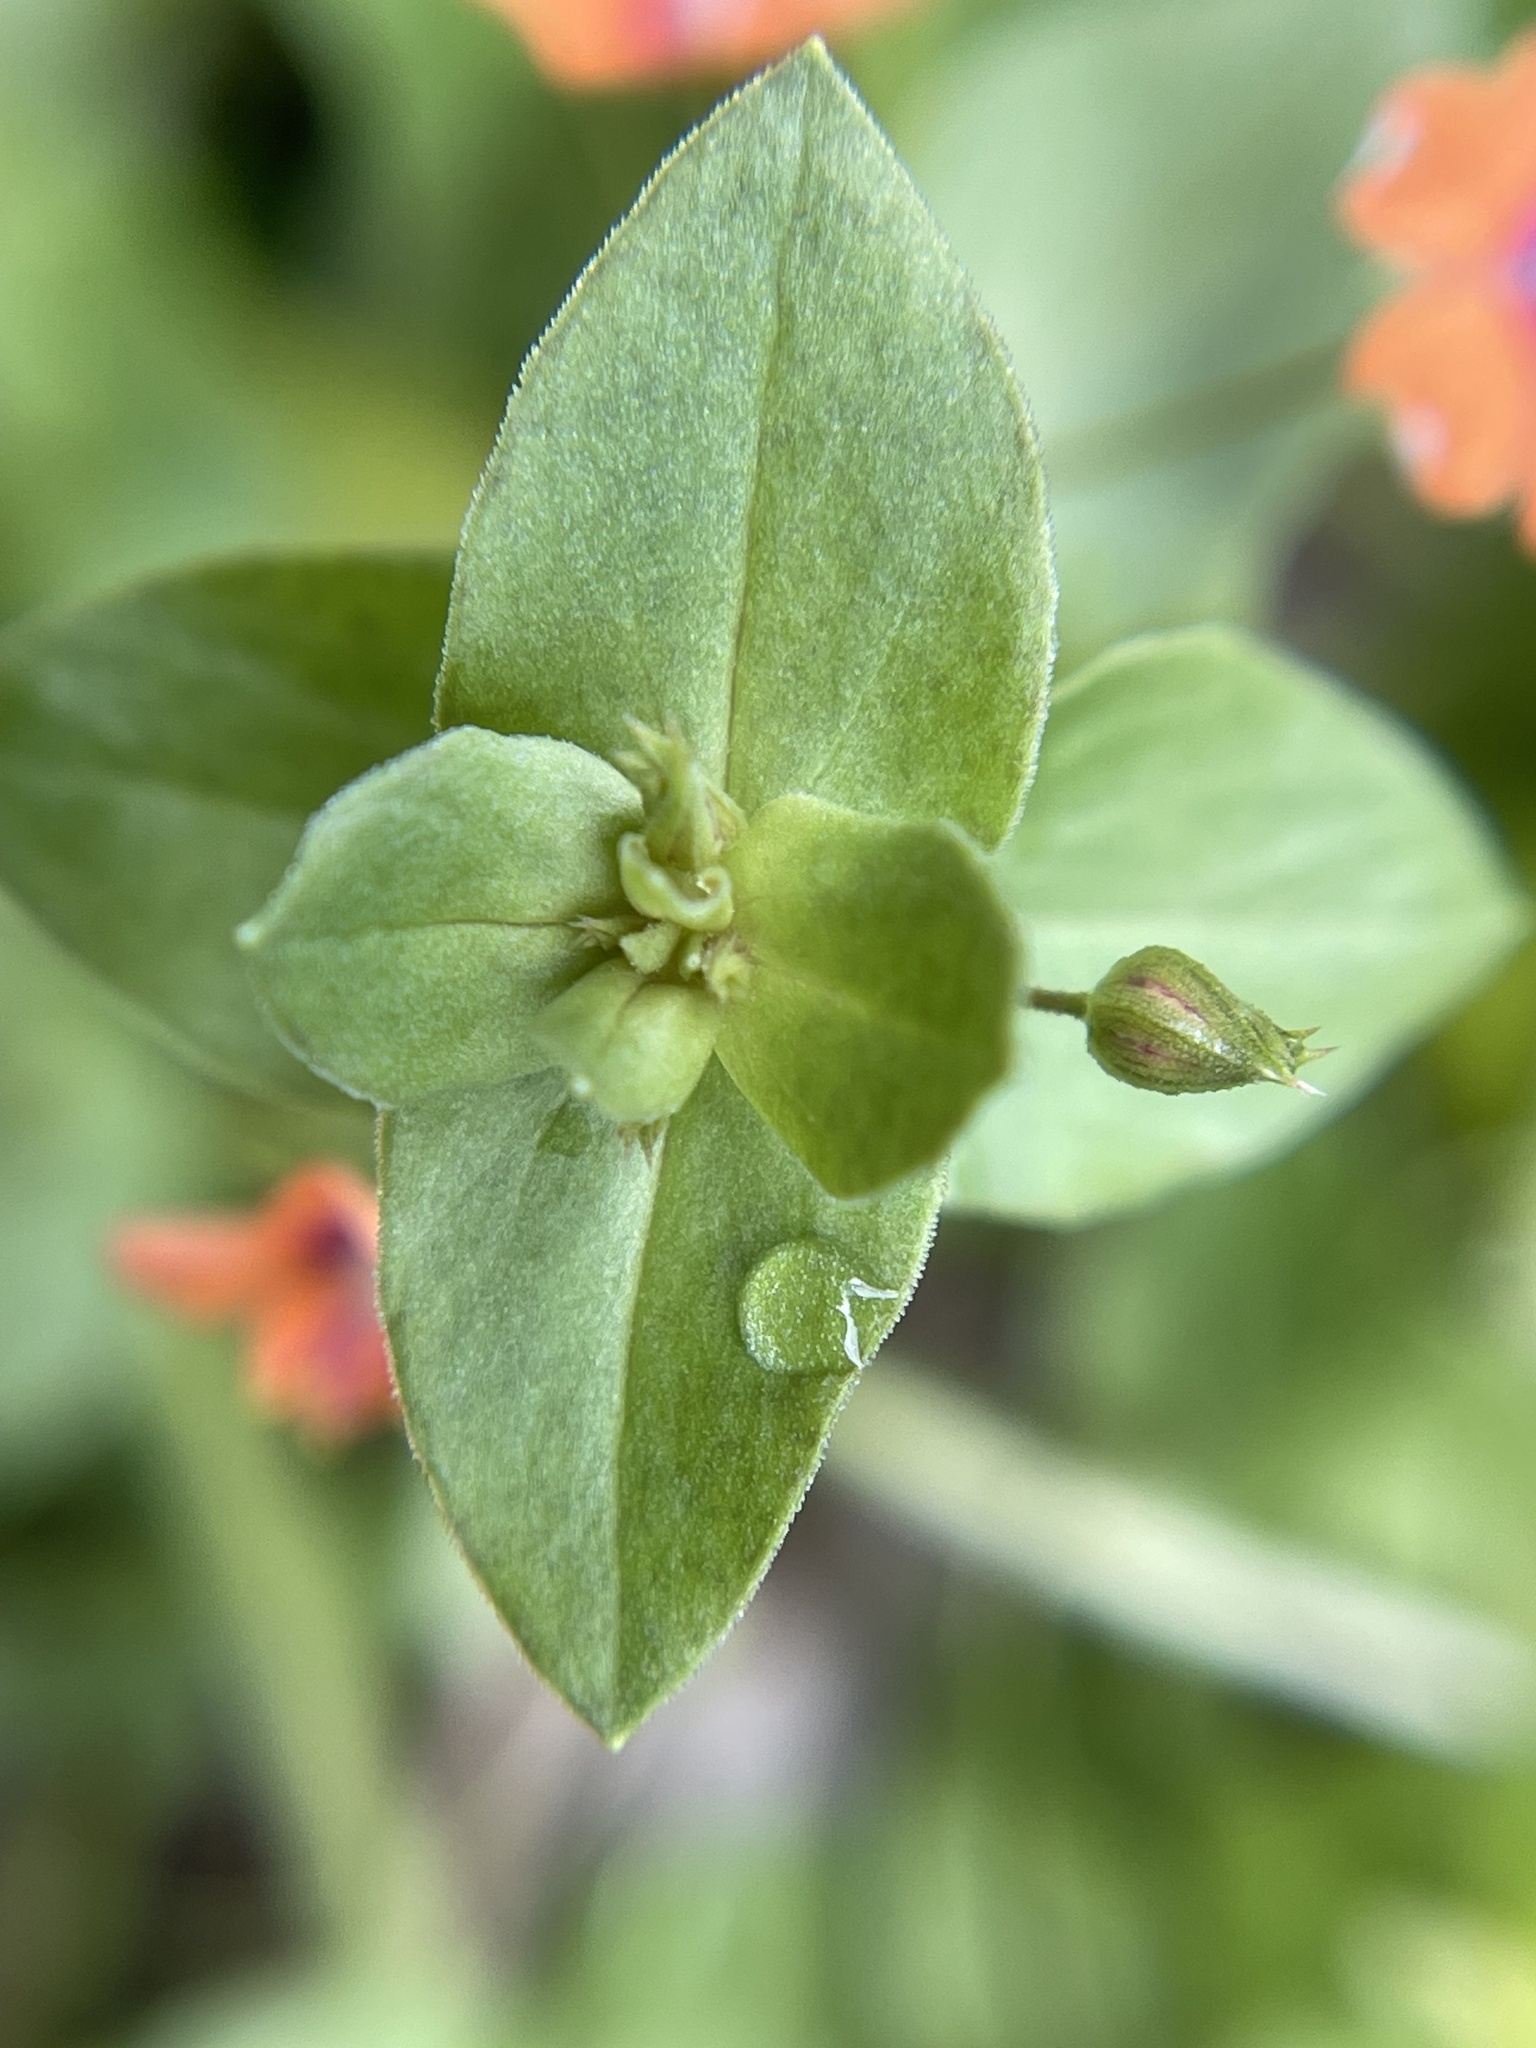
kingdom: Plantae
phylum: Tracheophyta
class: Magnoliopsida
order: Ericales
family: Primulaceae
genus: Lysimachia
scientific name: Lysimachia arvensis
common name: Scarlet pimpernel
